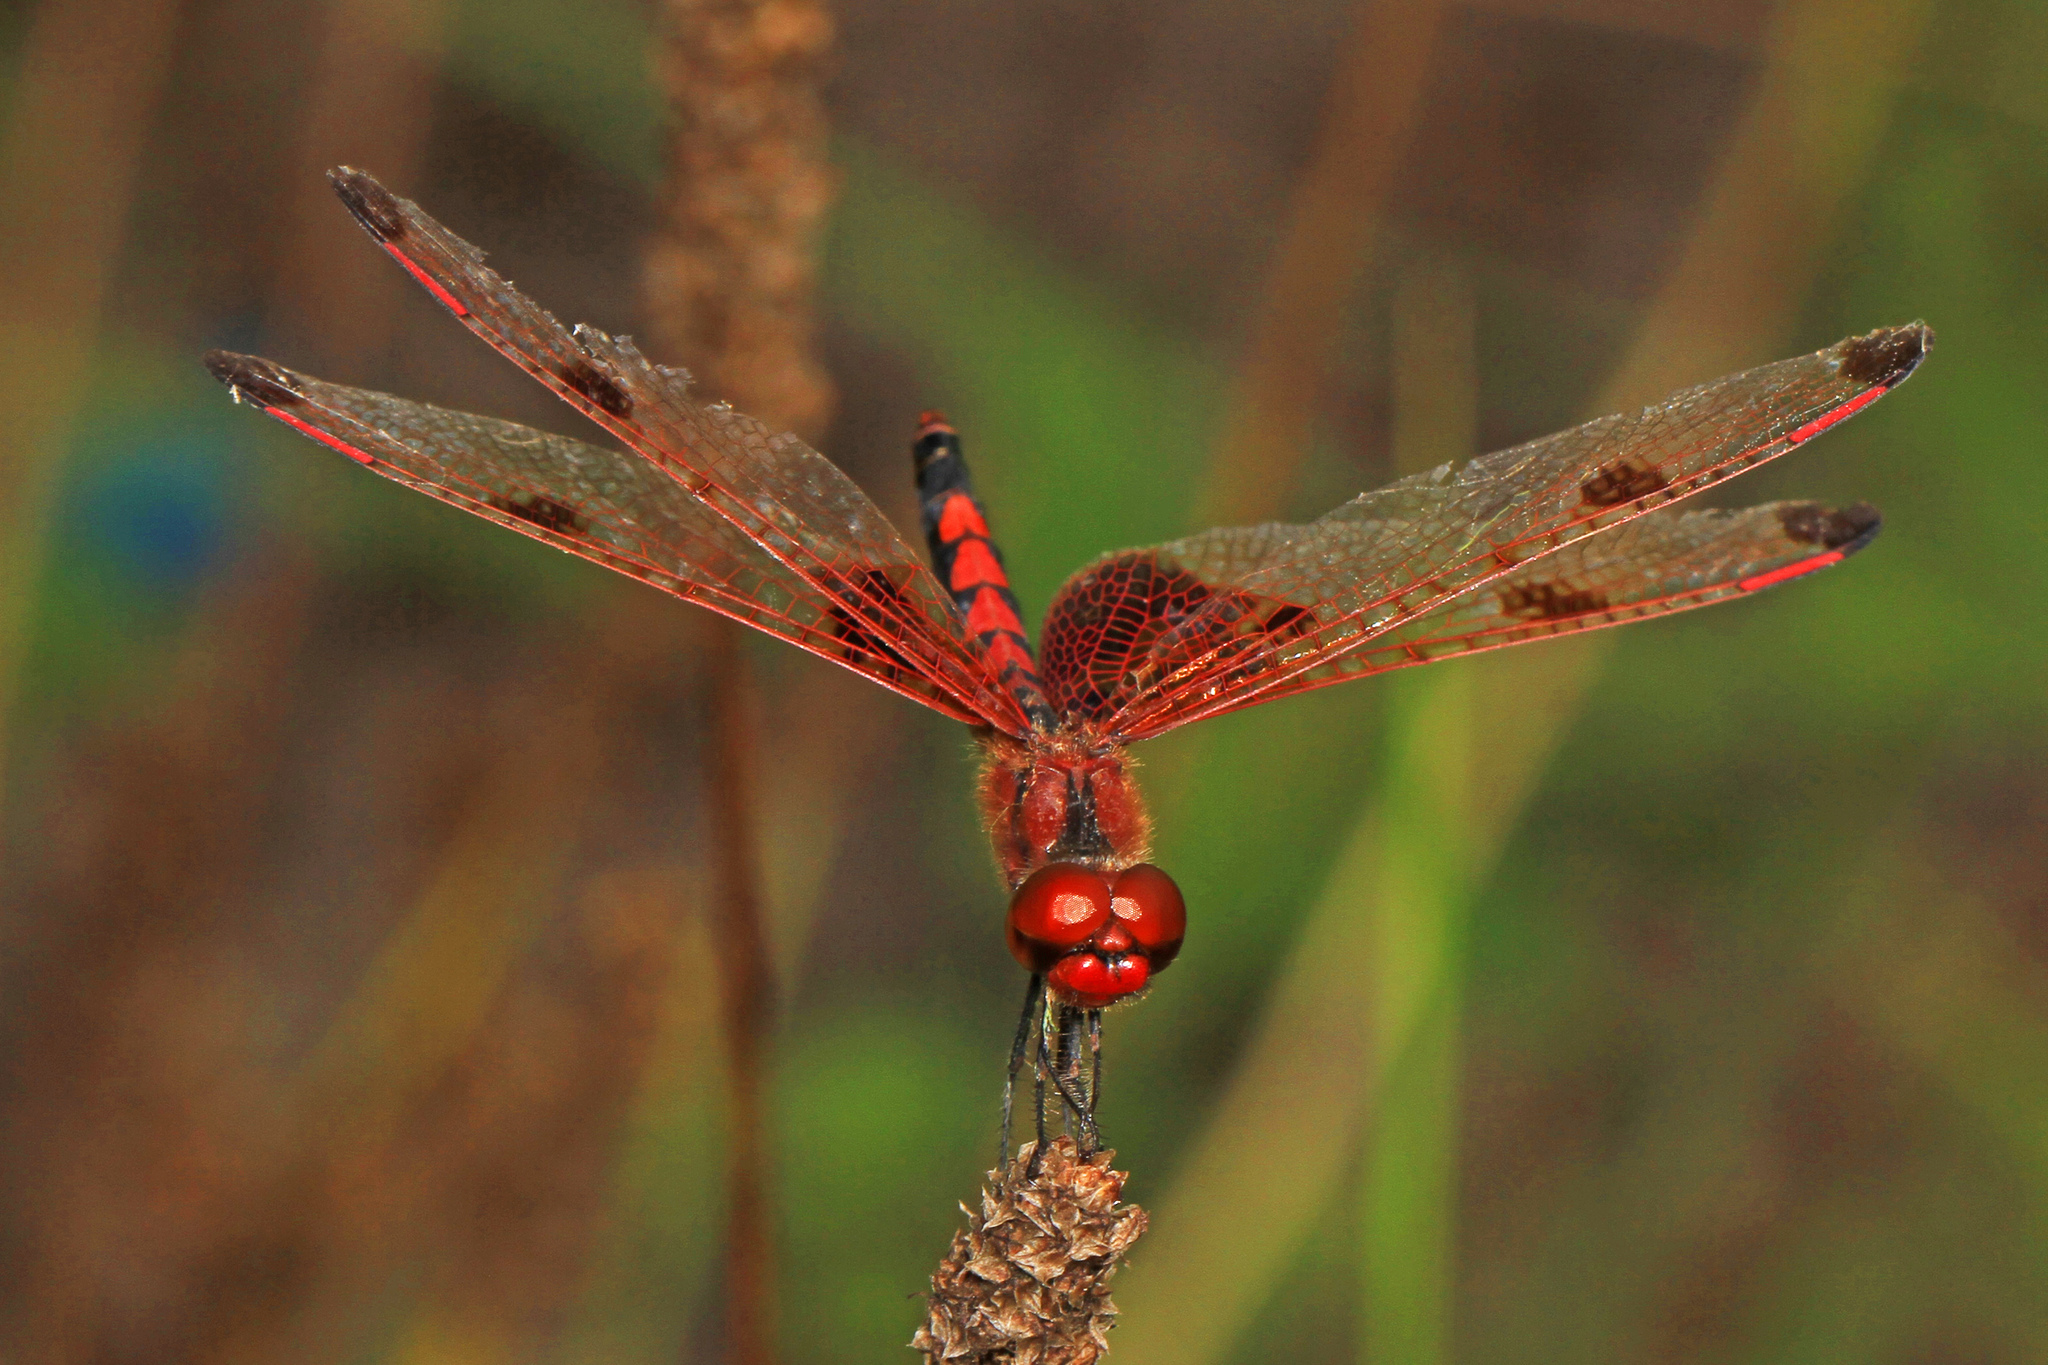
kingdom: Animalia
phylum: Arthropoda
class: Insecta
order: Odonata
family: Libellulidae
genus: Celithemis
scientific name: Celithemis elisa
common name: Calico pennant
